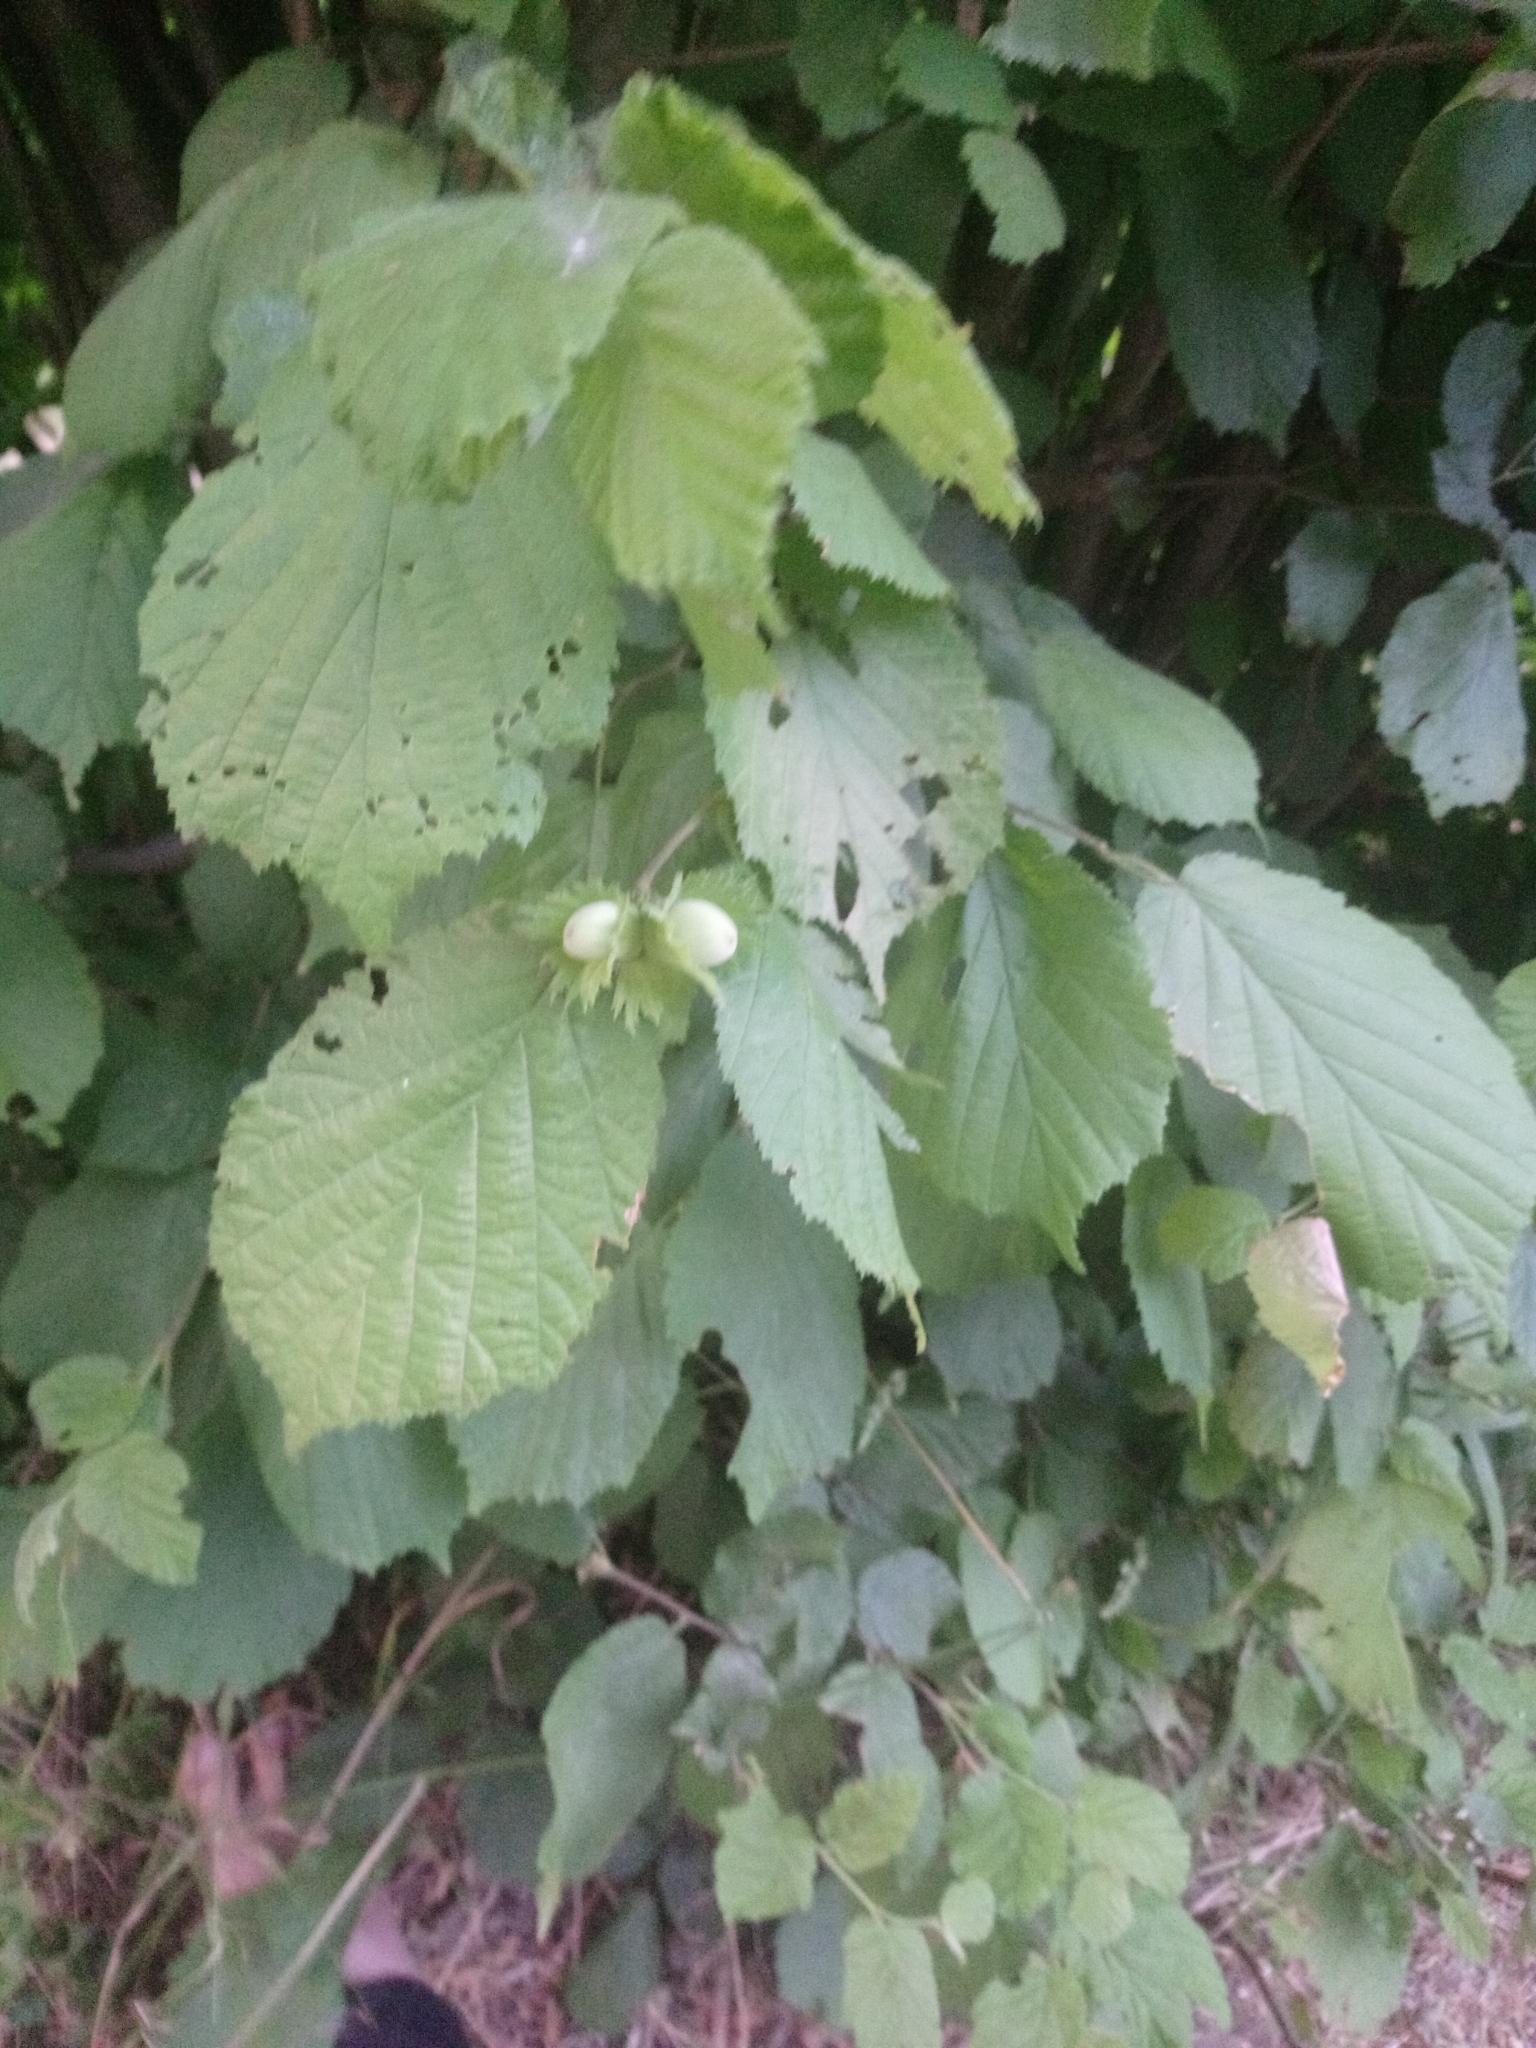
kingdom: Plantae
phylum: Tracheophyta
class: Magnoliopsida
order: Fagales
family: Betulaceae
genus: Corylus
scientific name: Corylus avellana
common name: European hazel
